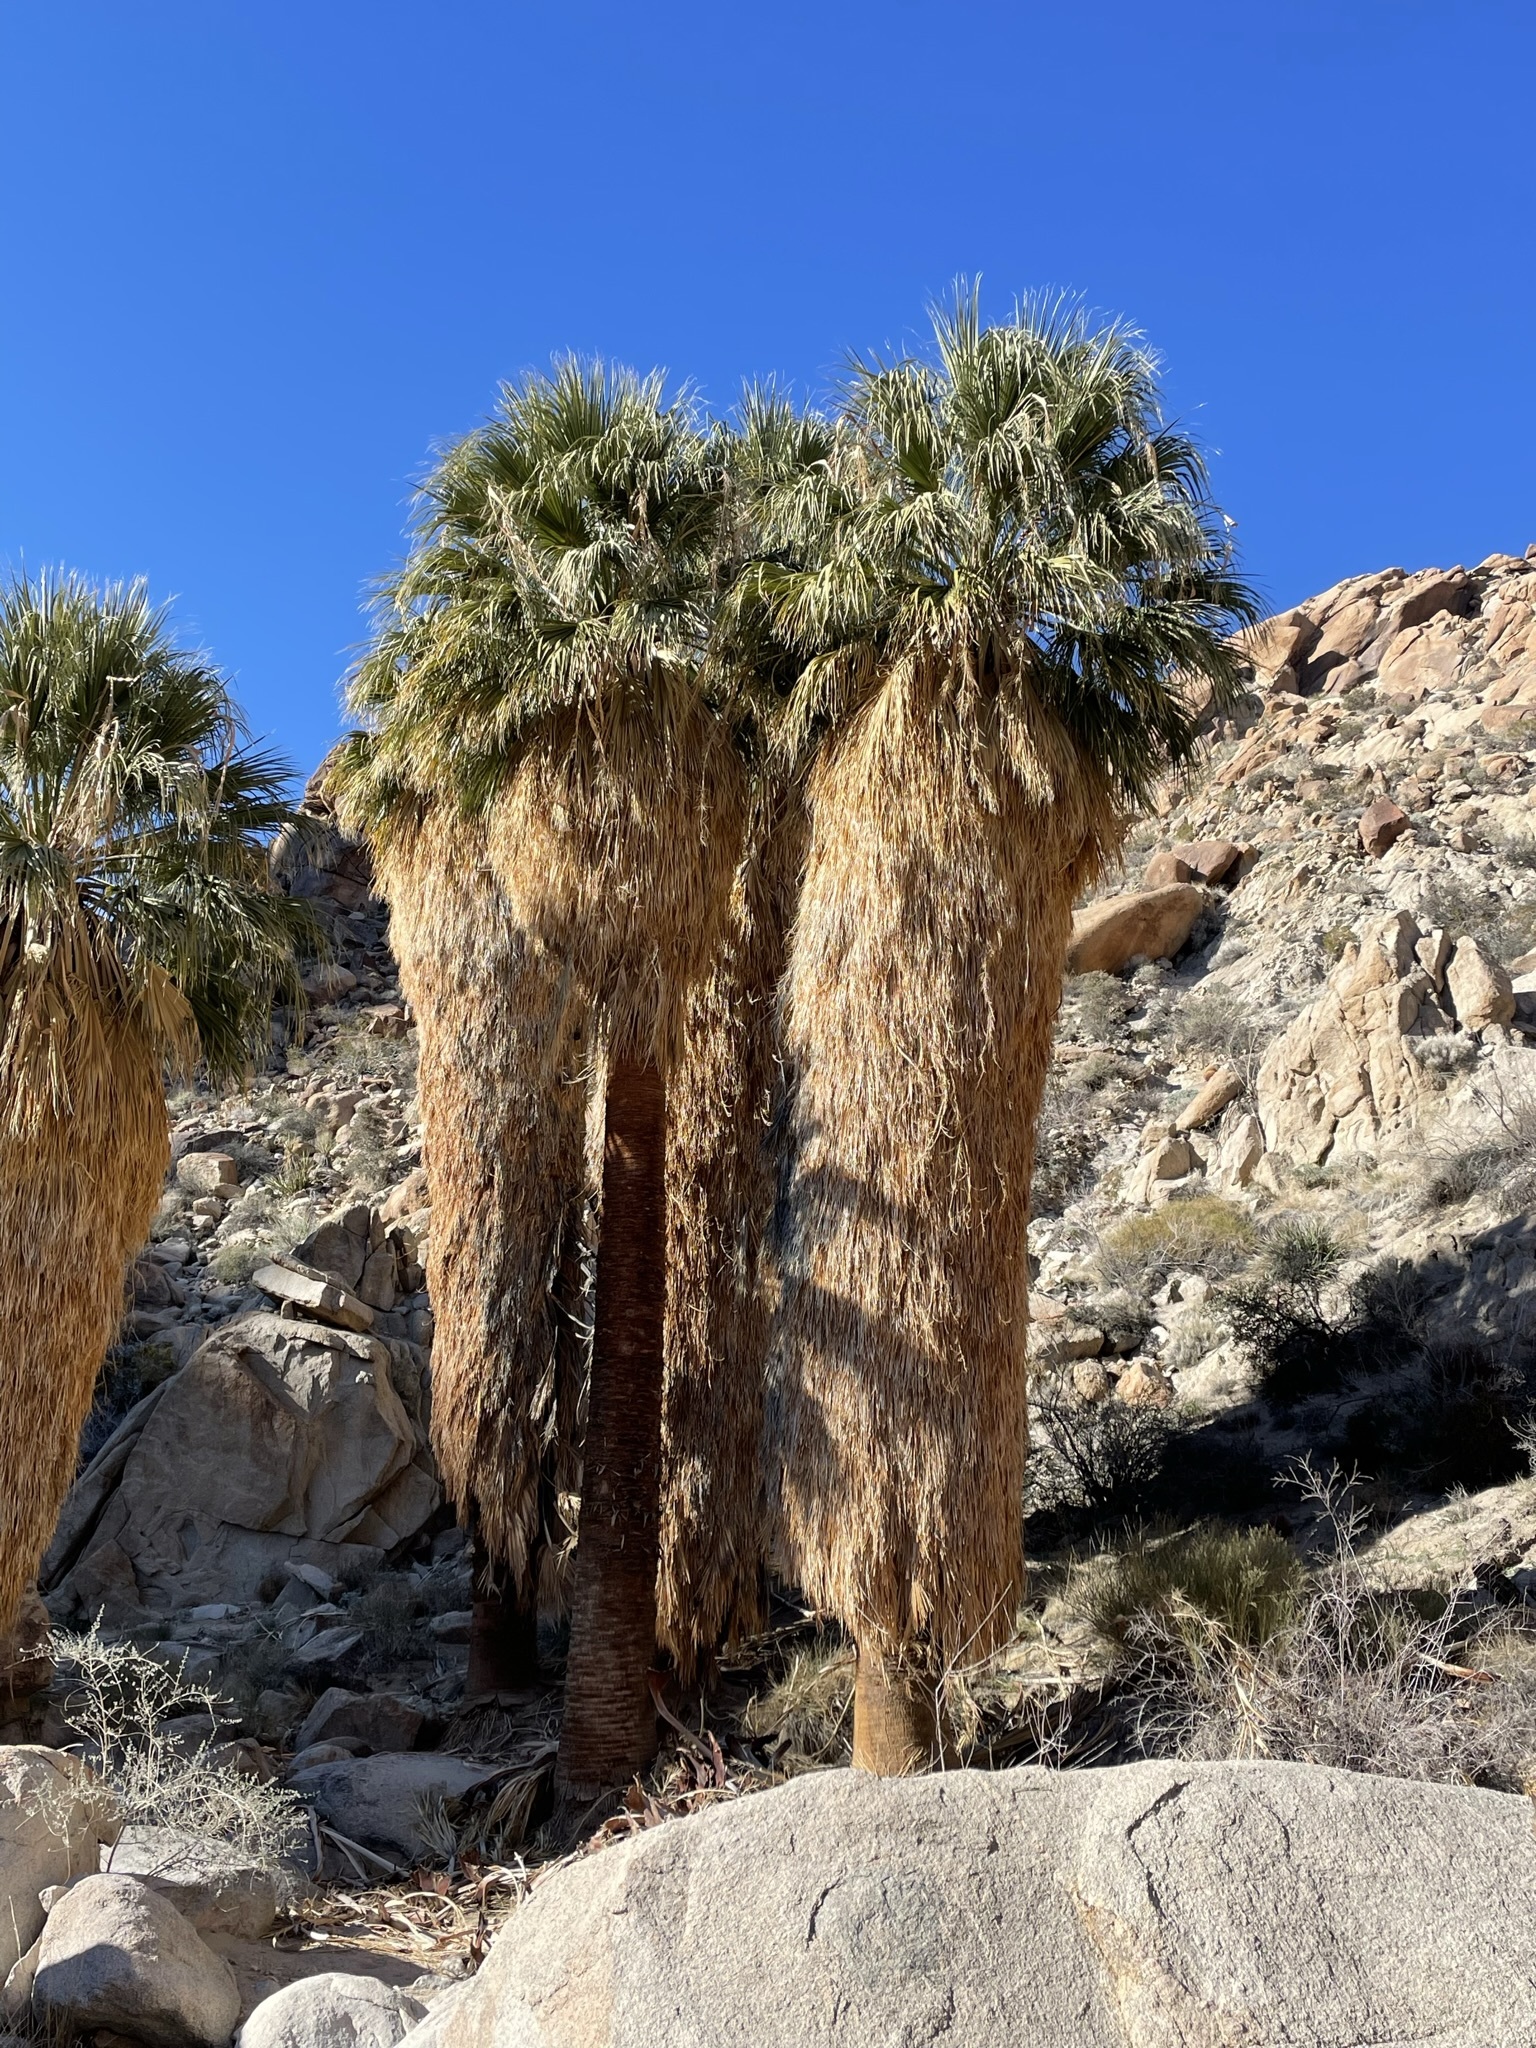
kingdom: Plantae
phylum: Tracheophyta
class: Liliopsida
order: Arecales
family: Arecaceae
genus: Washingtonia
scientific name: Washingtonia filifera
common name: California fan palm
